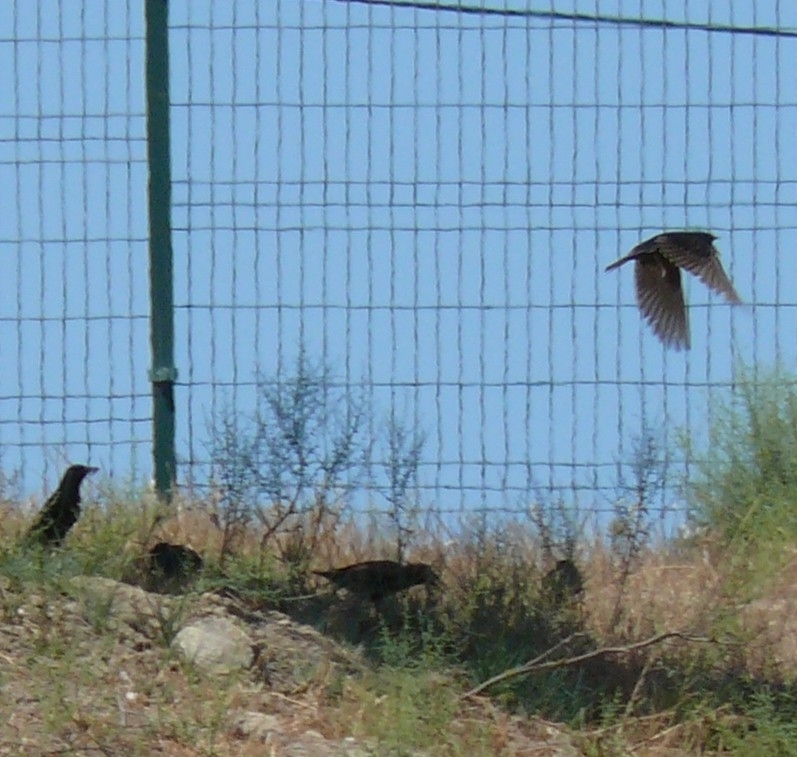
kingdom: Animalia
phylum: Chordata
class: Aves
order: Passeriformes
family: Sturnidae
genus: Sturnus
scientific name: Sturnus vulgaris
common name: Common starling
